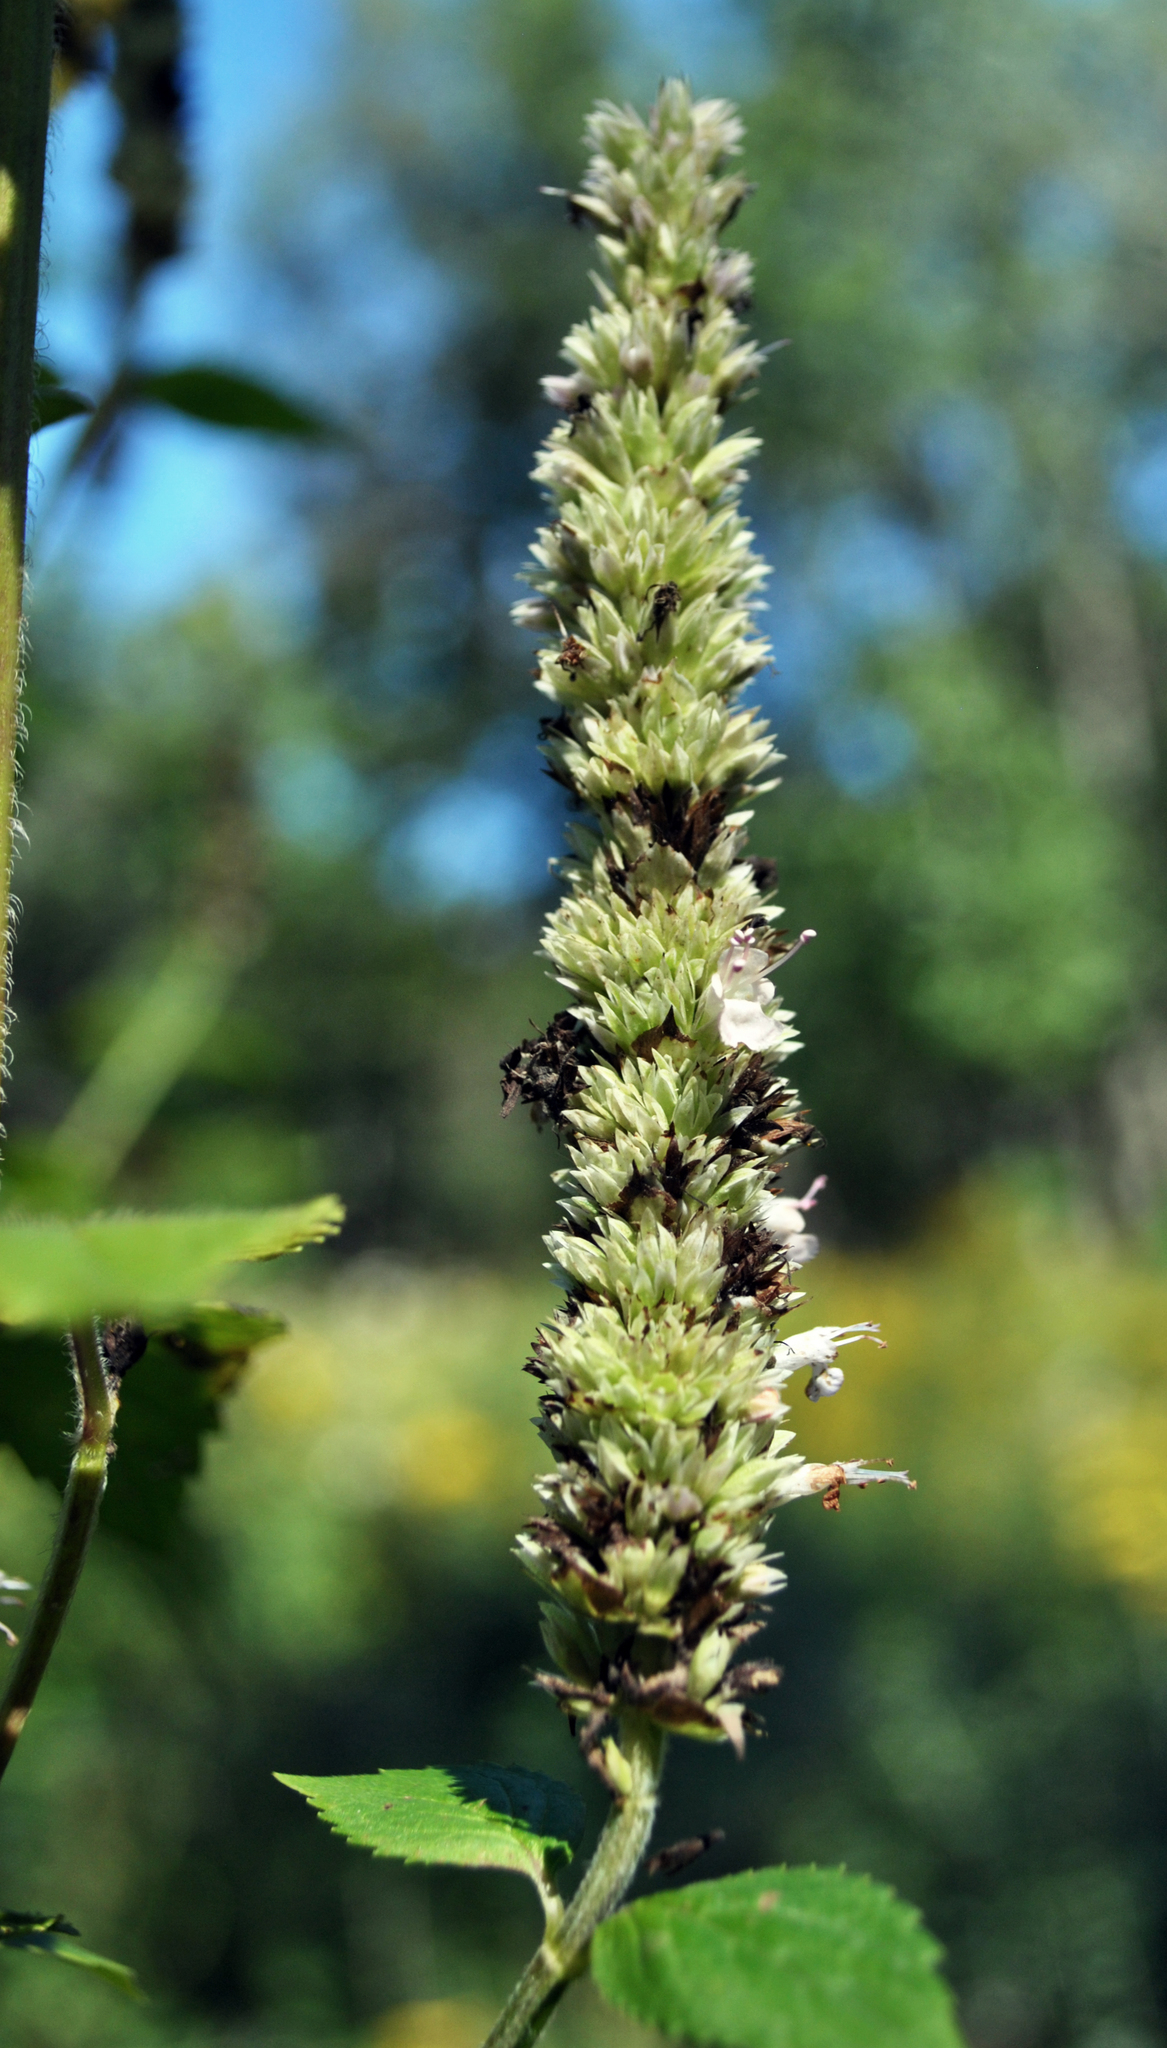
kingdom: Plantae
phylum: Tracheophyta
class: Magnoliopsida
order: Lamiales
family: Lamiaceae
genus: Agastache
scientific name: Agastache scrophulariifolia
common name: Figwort giant hyssop
